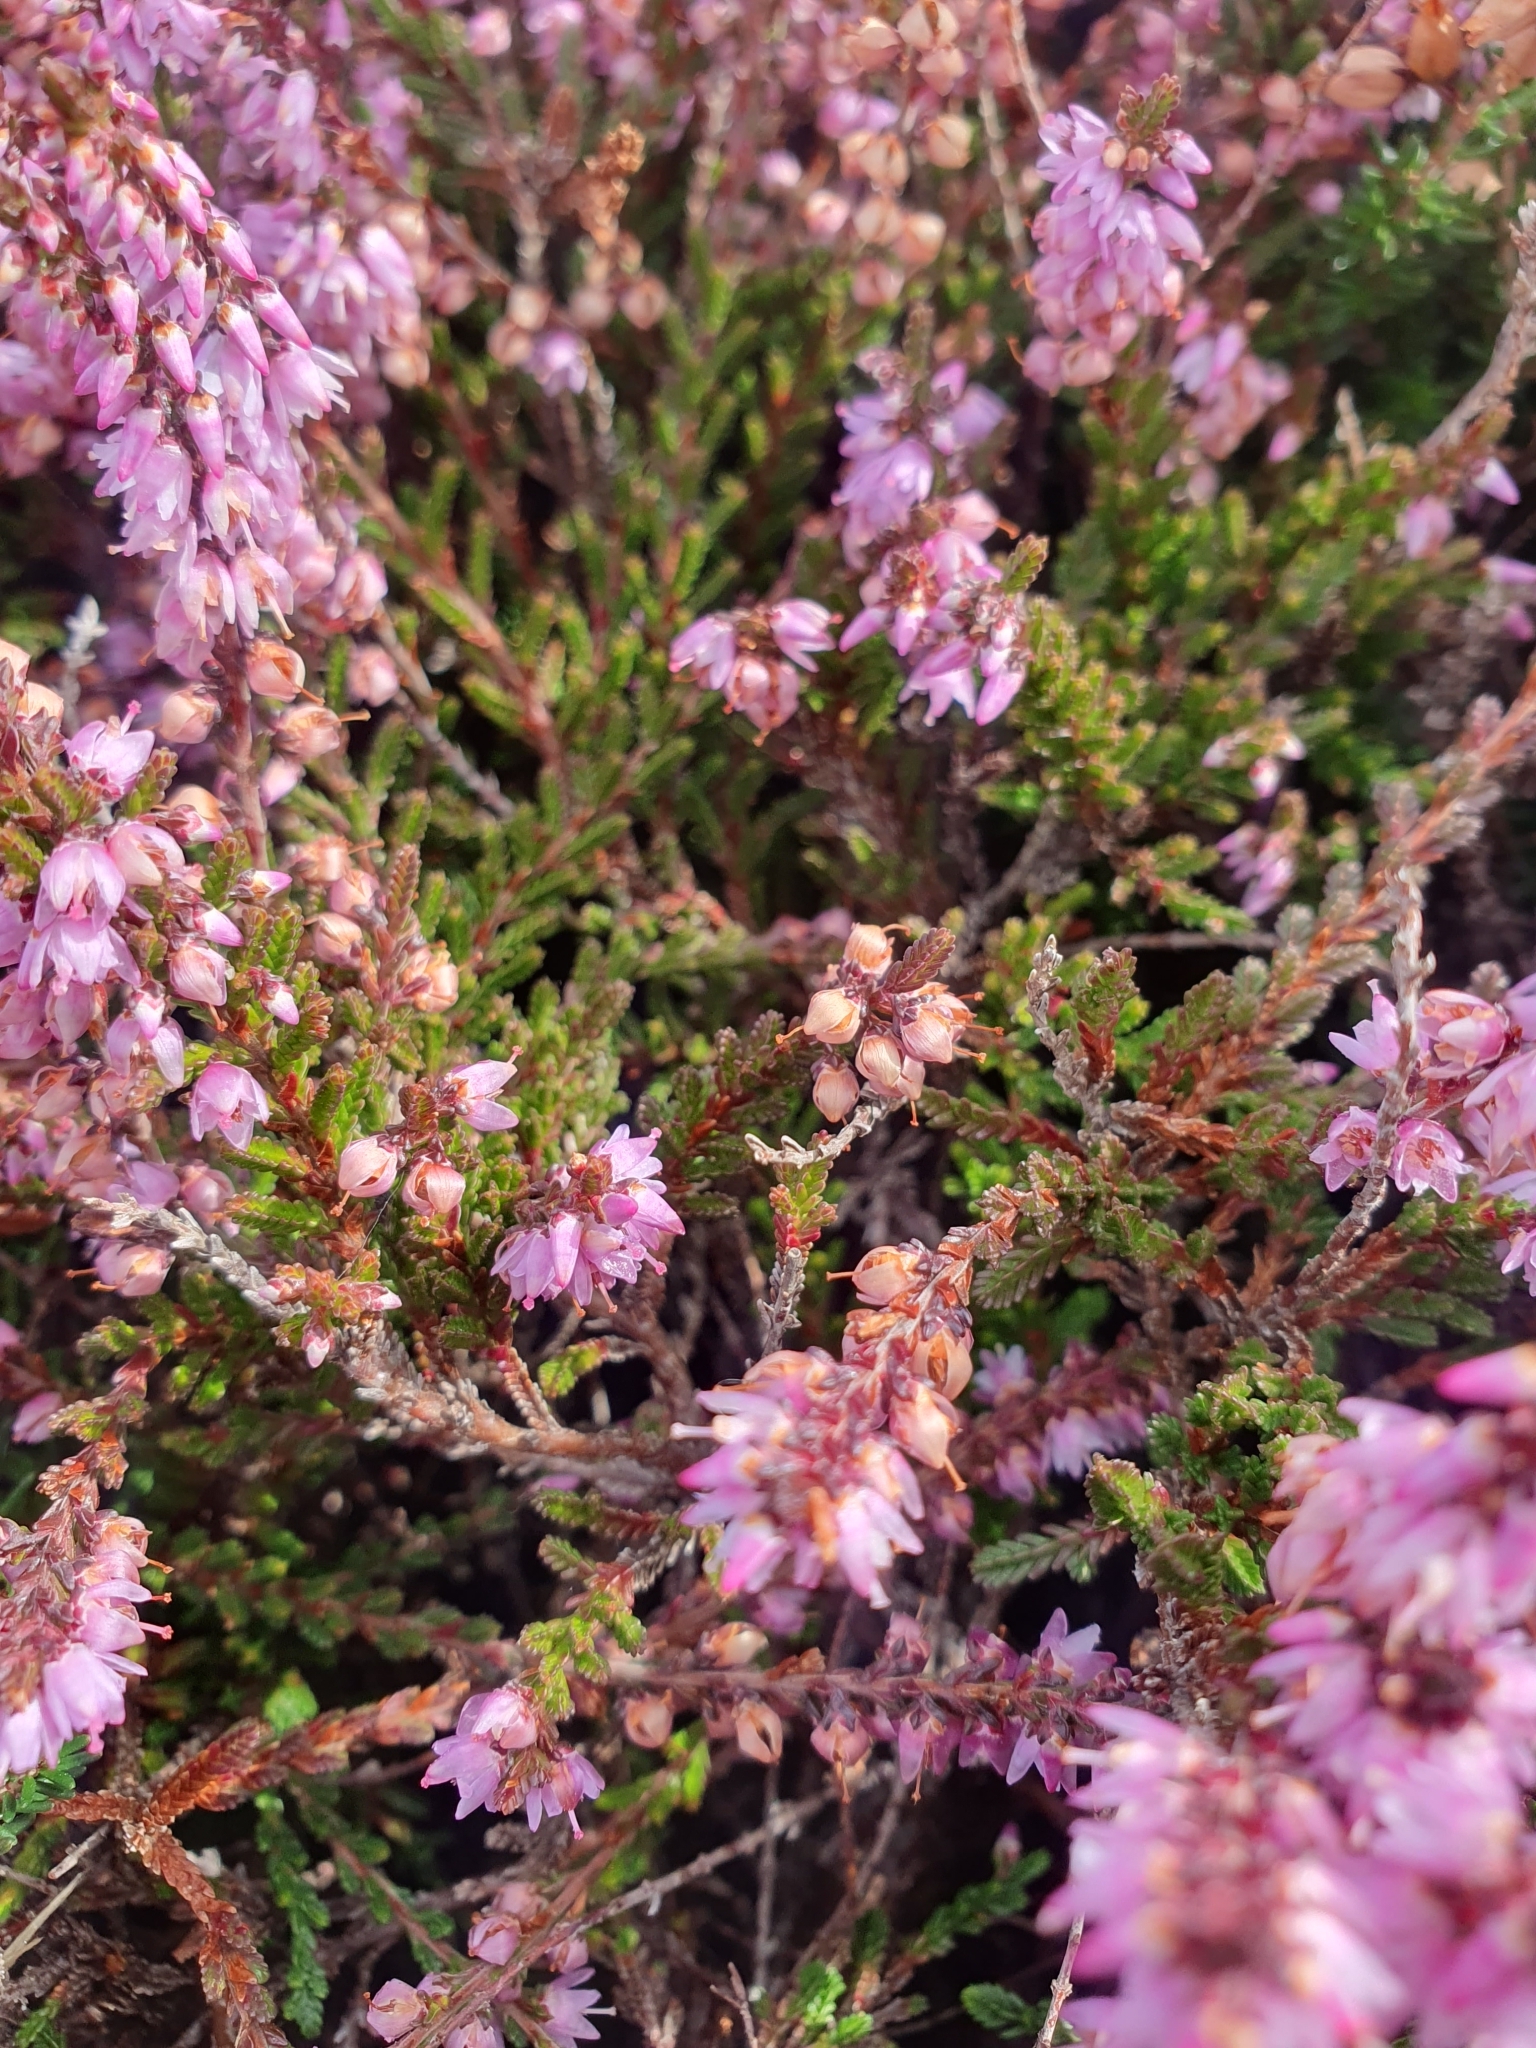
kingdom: Plantae
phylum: Tracheophyta
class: Magnoliopsida
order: Ericales
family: Ericaceae
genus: Erica
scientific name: Erica cinerea
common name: Bell heather
